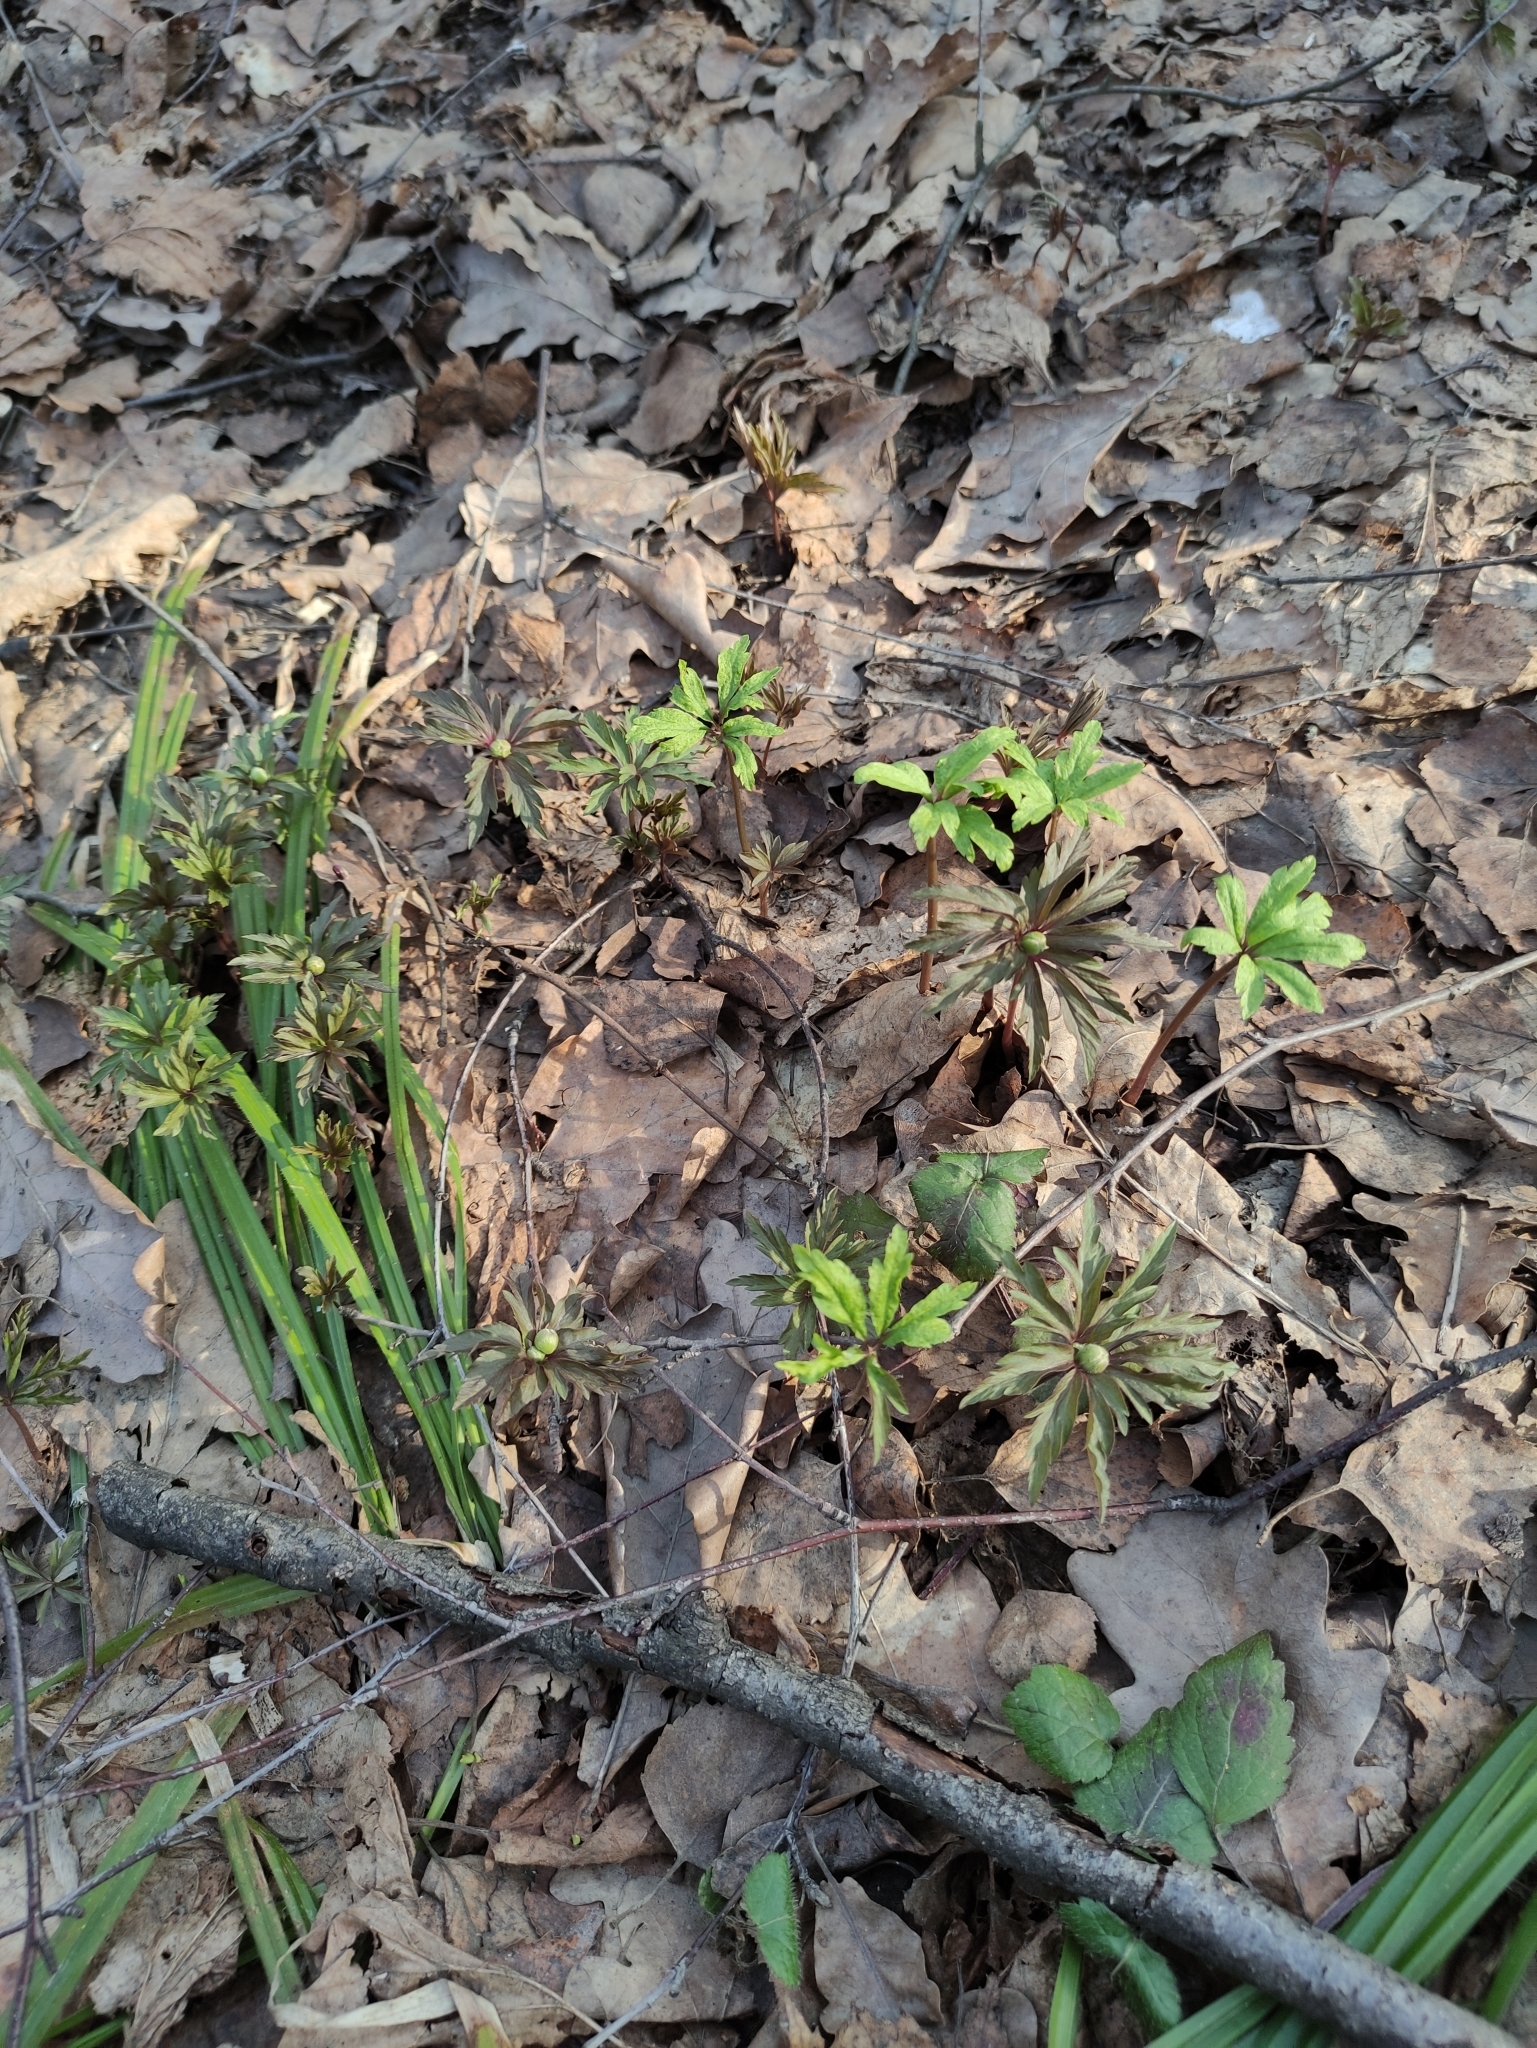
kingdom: Plantae
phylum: Tracheophyta
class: Magnoliopsida
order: Ranunculales
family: Ranunculaceae
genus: Anemone
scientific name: Anemone ranunculoides
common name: Yellow anemone
